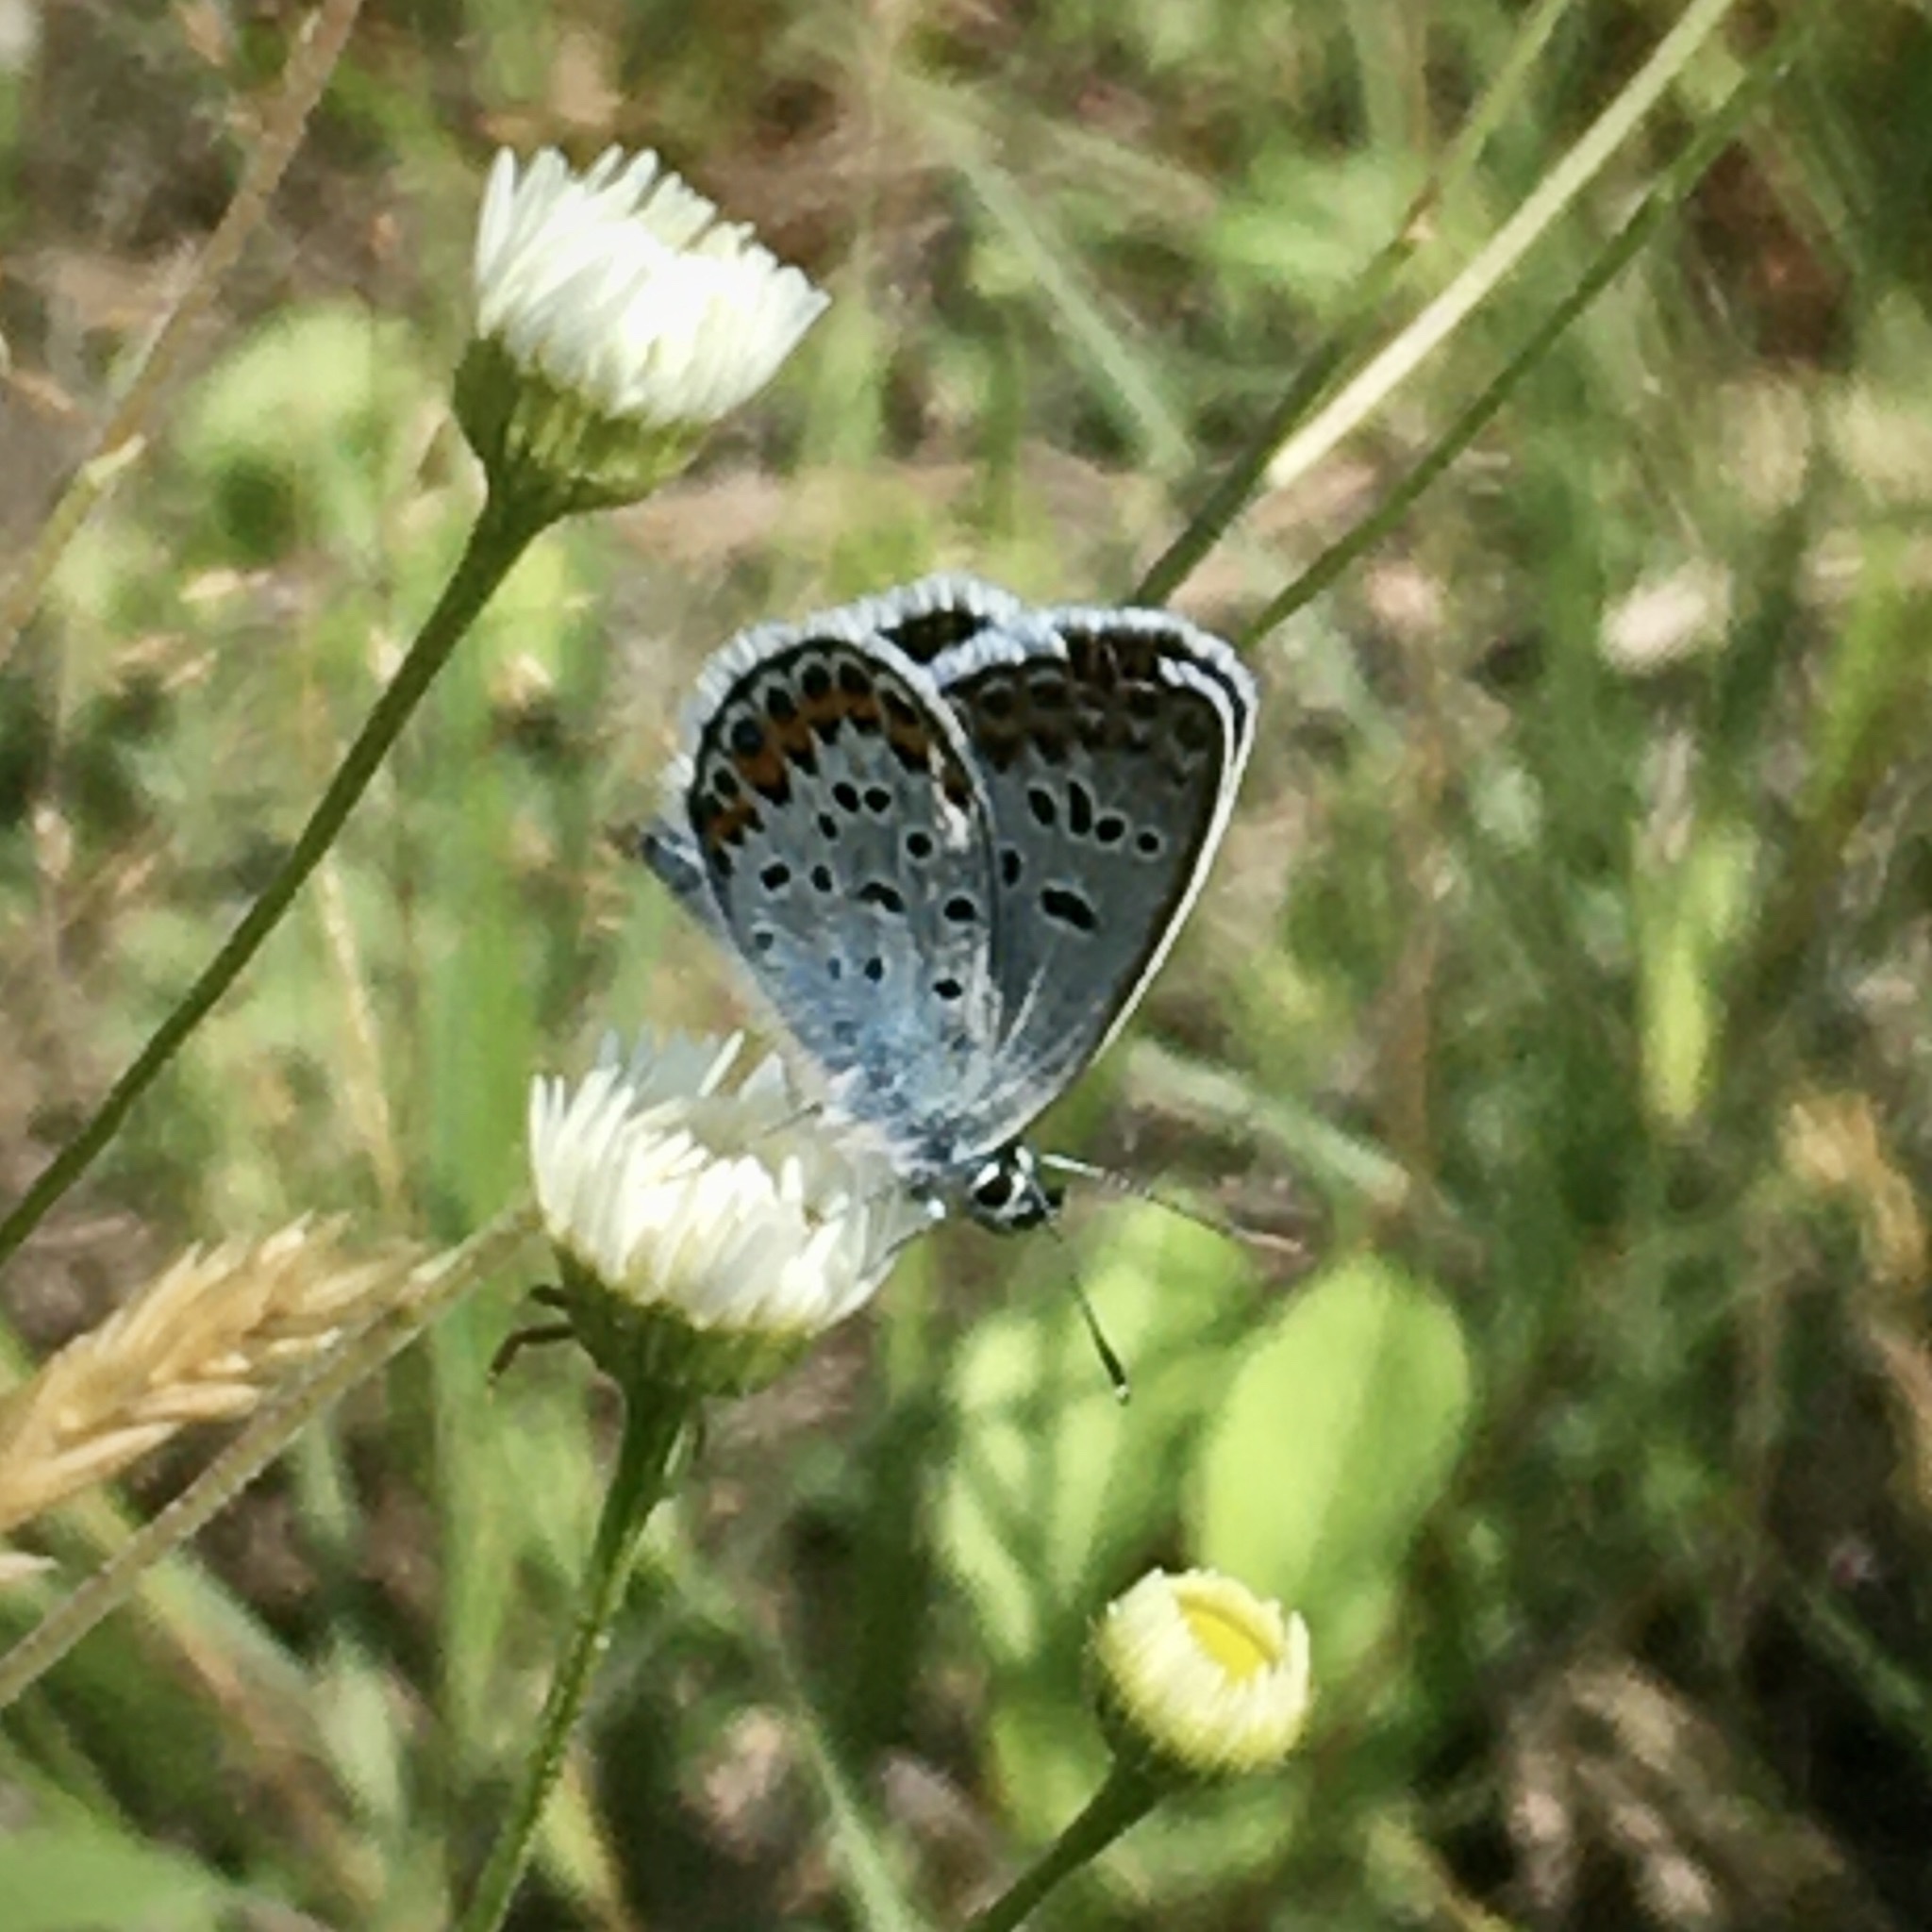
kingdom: Animalia
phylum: Arthropoda
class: Insecta
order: Lepidoptera
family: Lycaenidae
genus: Plebejus
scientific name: Plebejus argus
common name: Silver-studded blue
